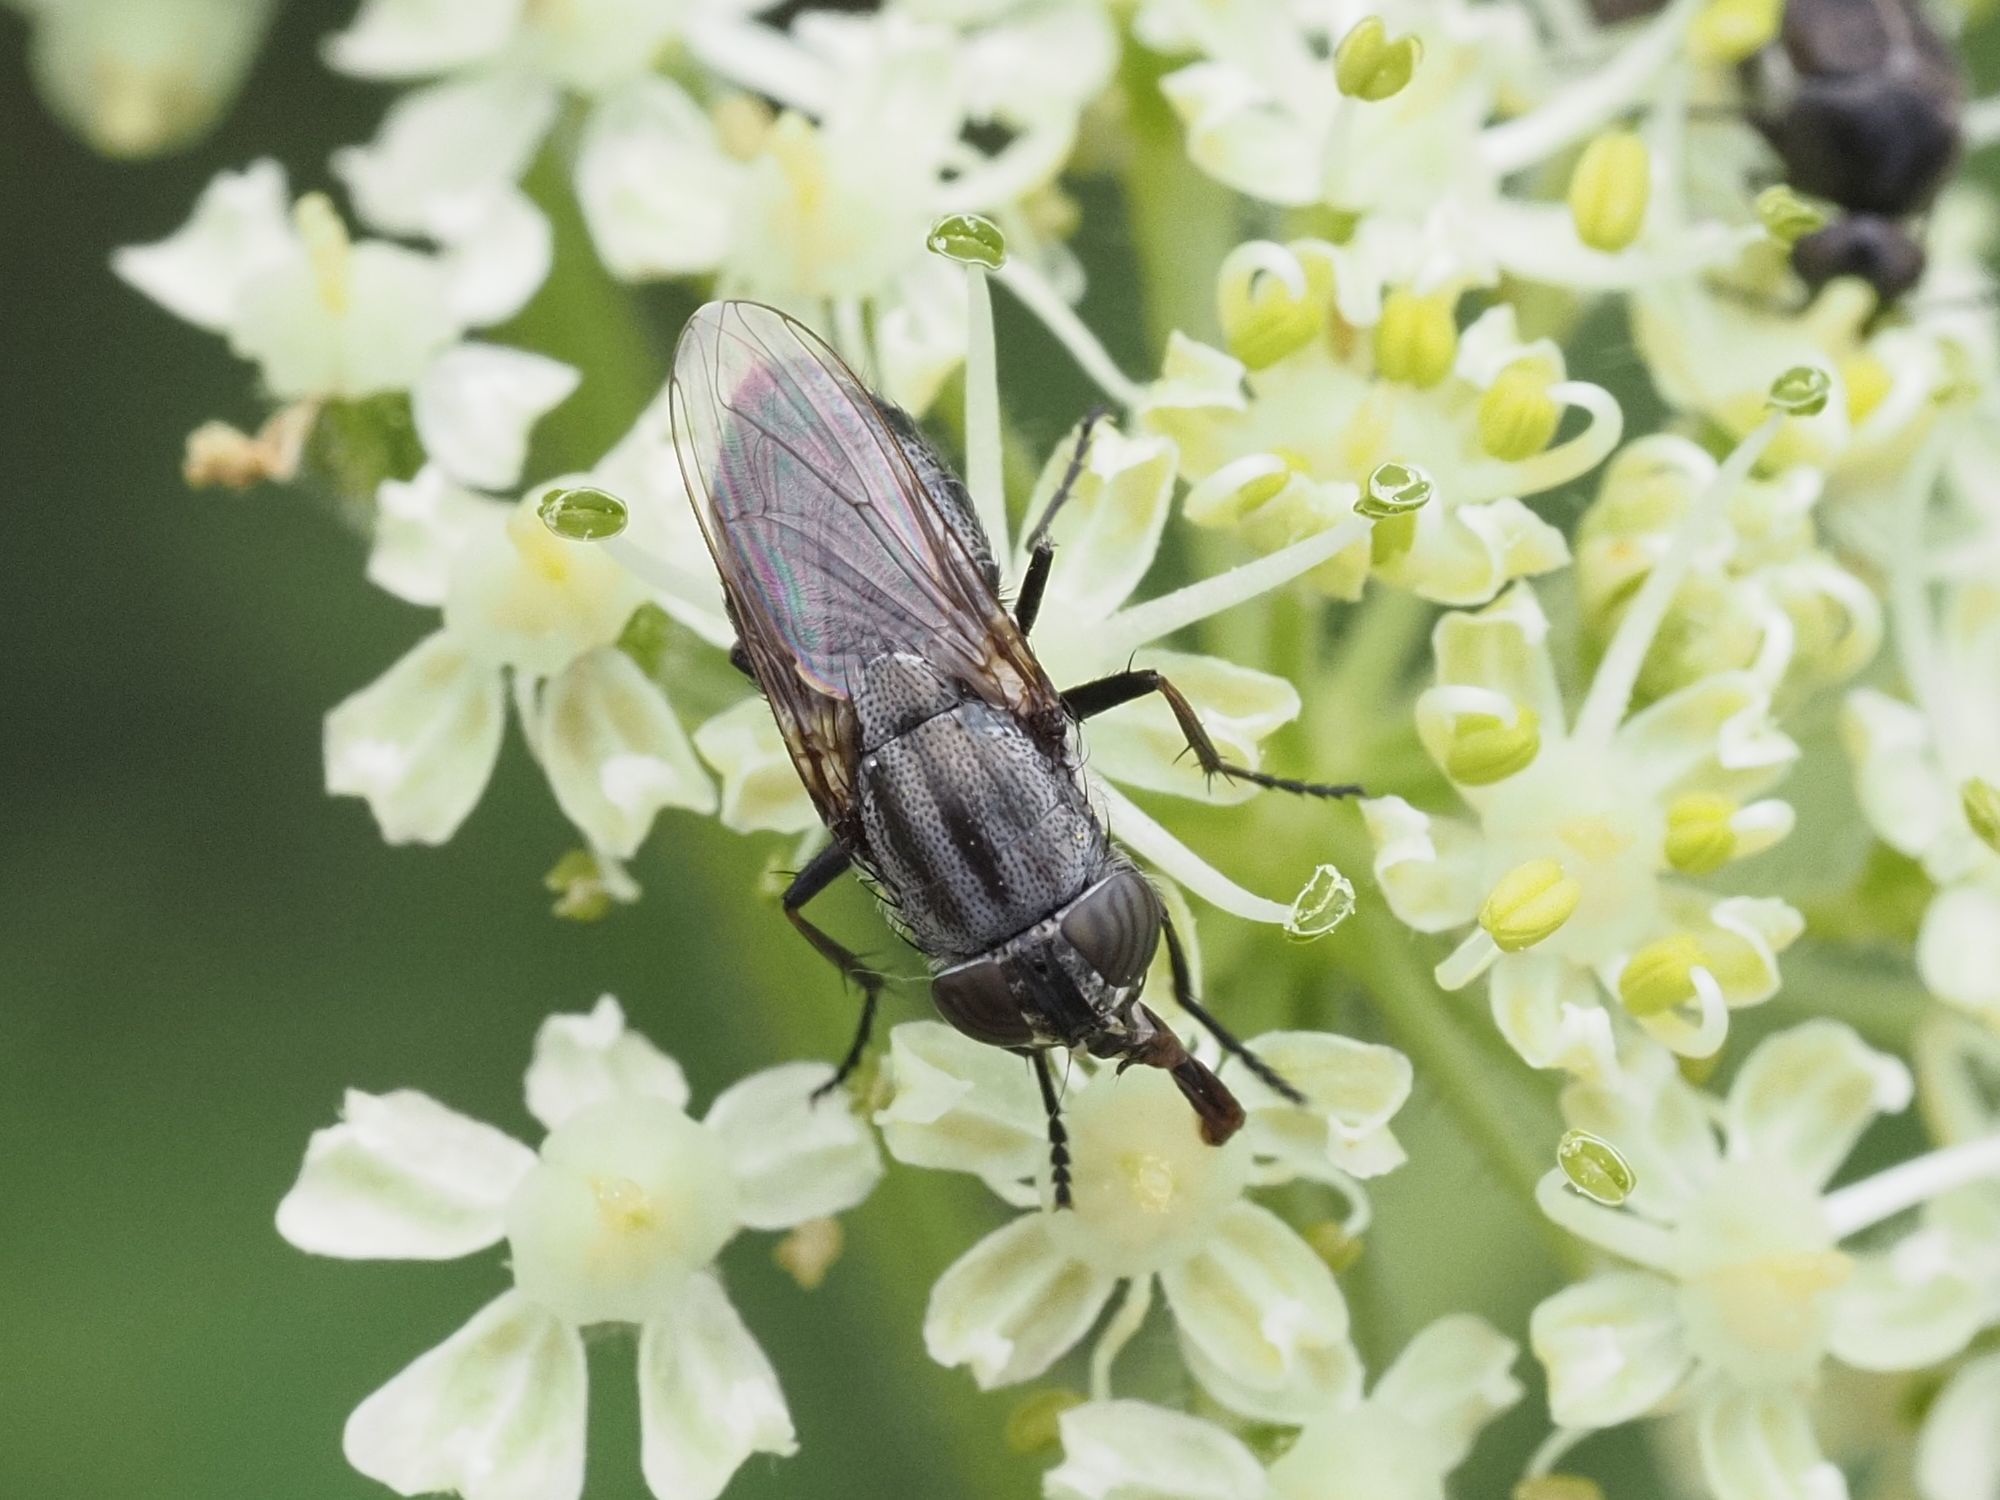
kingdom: Animalia
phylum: Arthropoda
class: Insecta
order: Diptera
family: Calliphoridae
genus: Stomorhina
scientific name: Stomorhina lunata
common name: Locust blowfly
